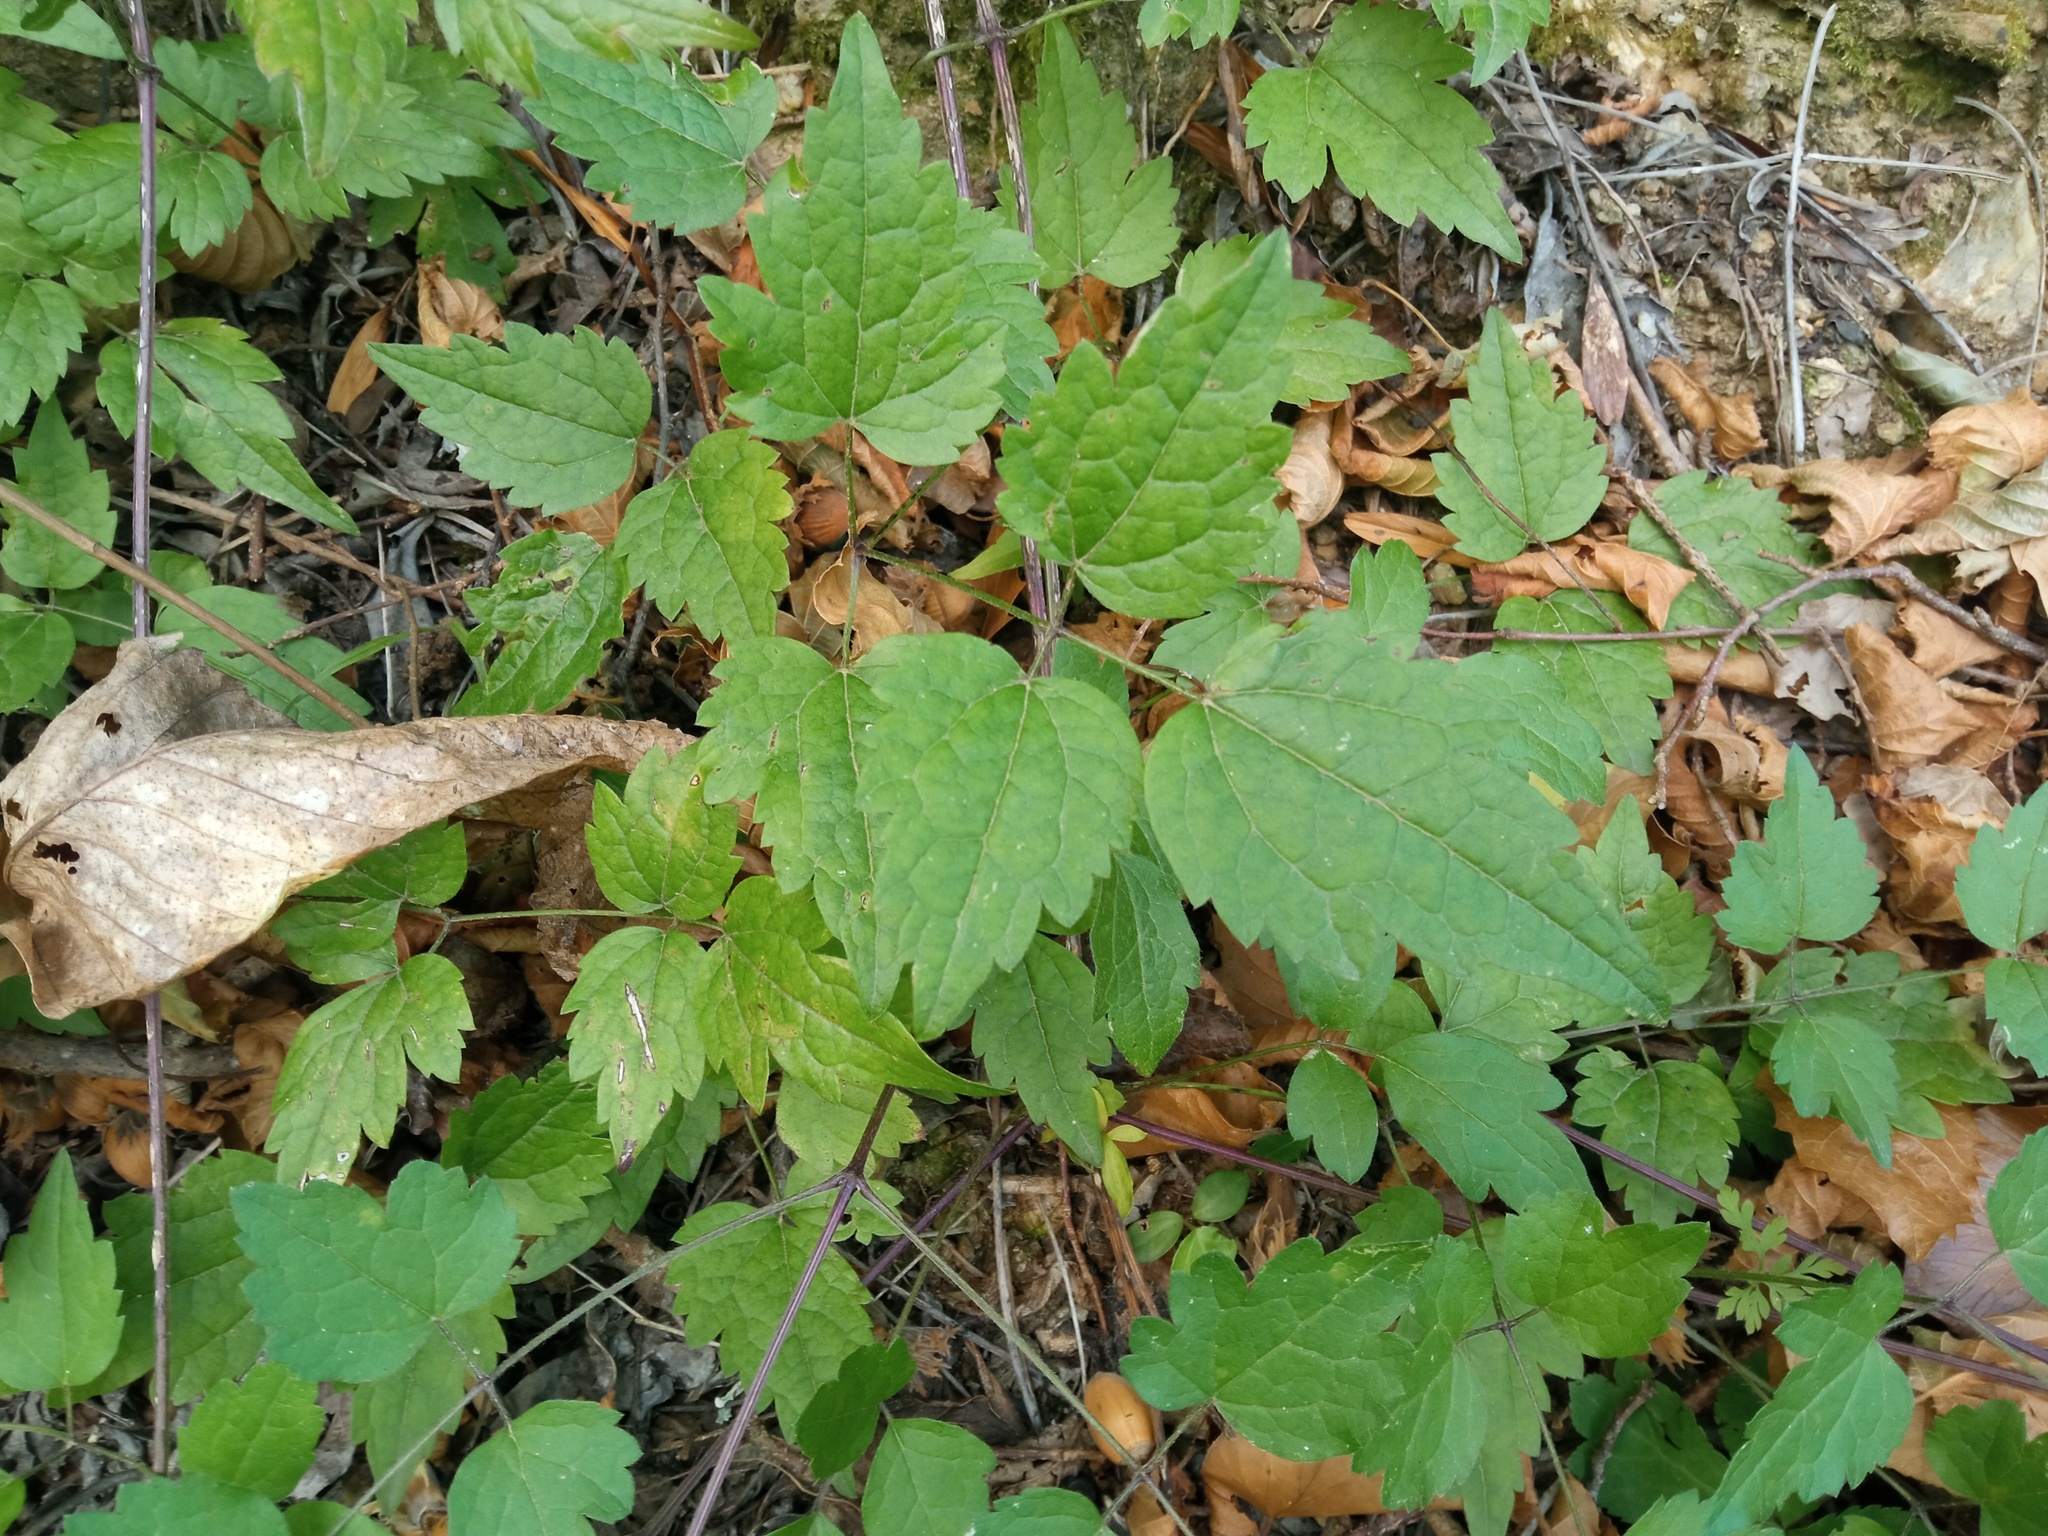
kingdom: Plantae
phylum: Tracheophyta
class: Magnoliopsida
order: Ranunculales
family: Ranunculaceae
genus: Clematis
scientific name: Clematis vitalba
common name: Evergreen clematis
